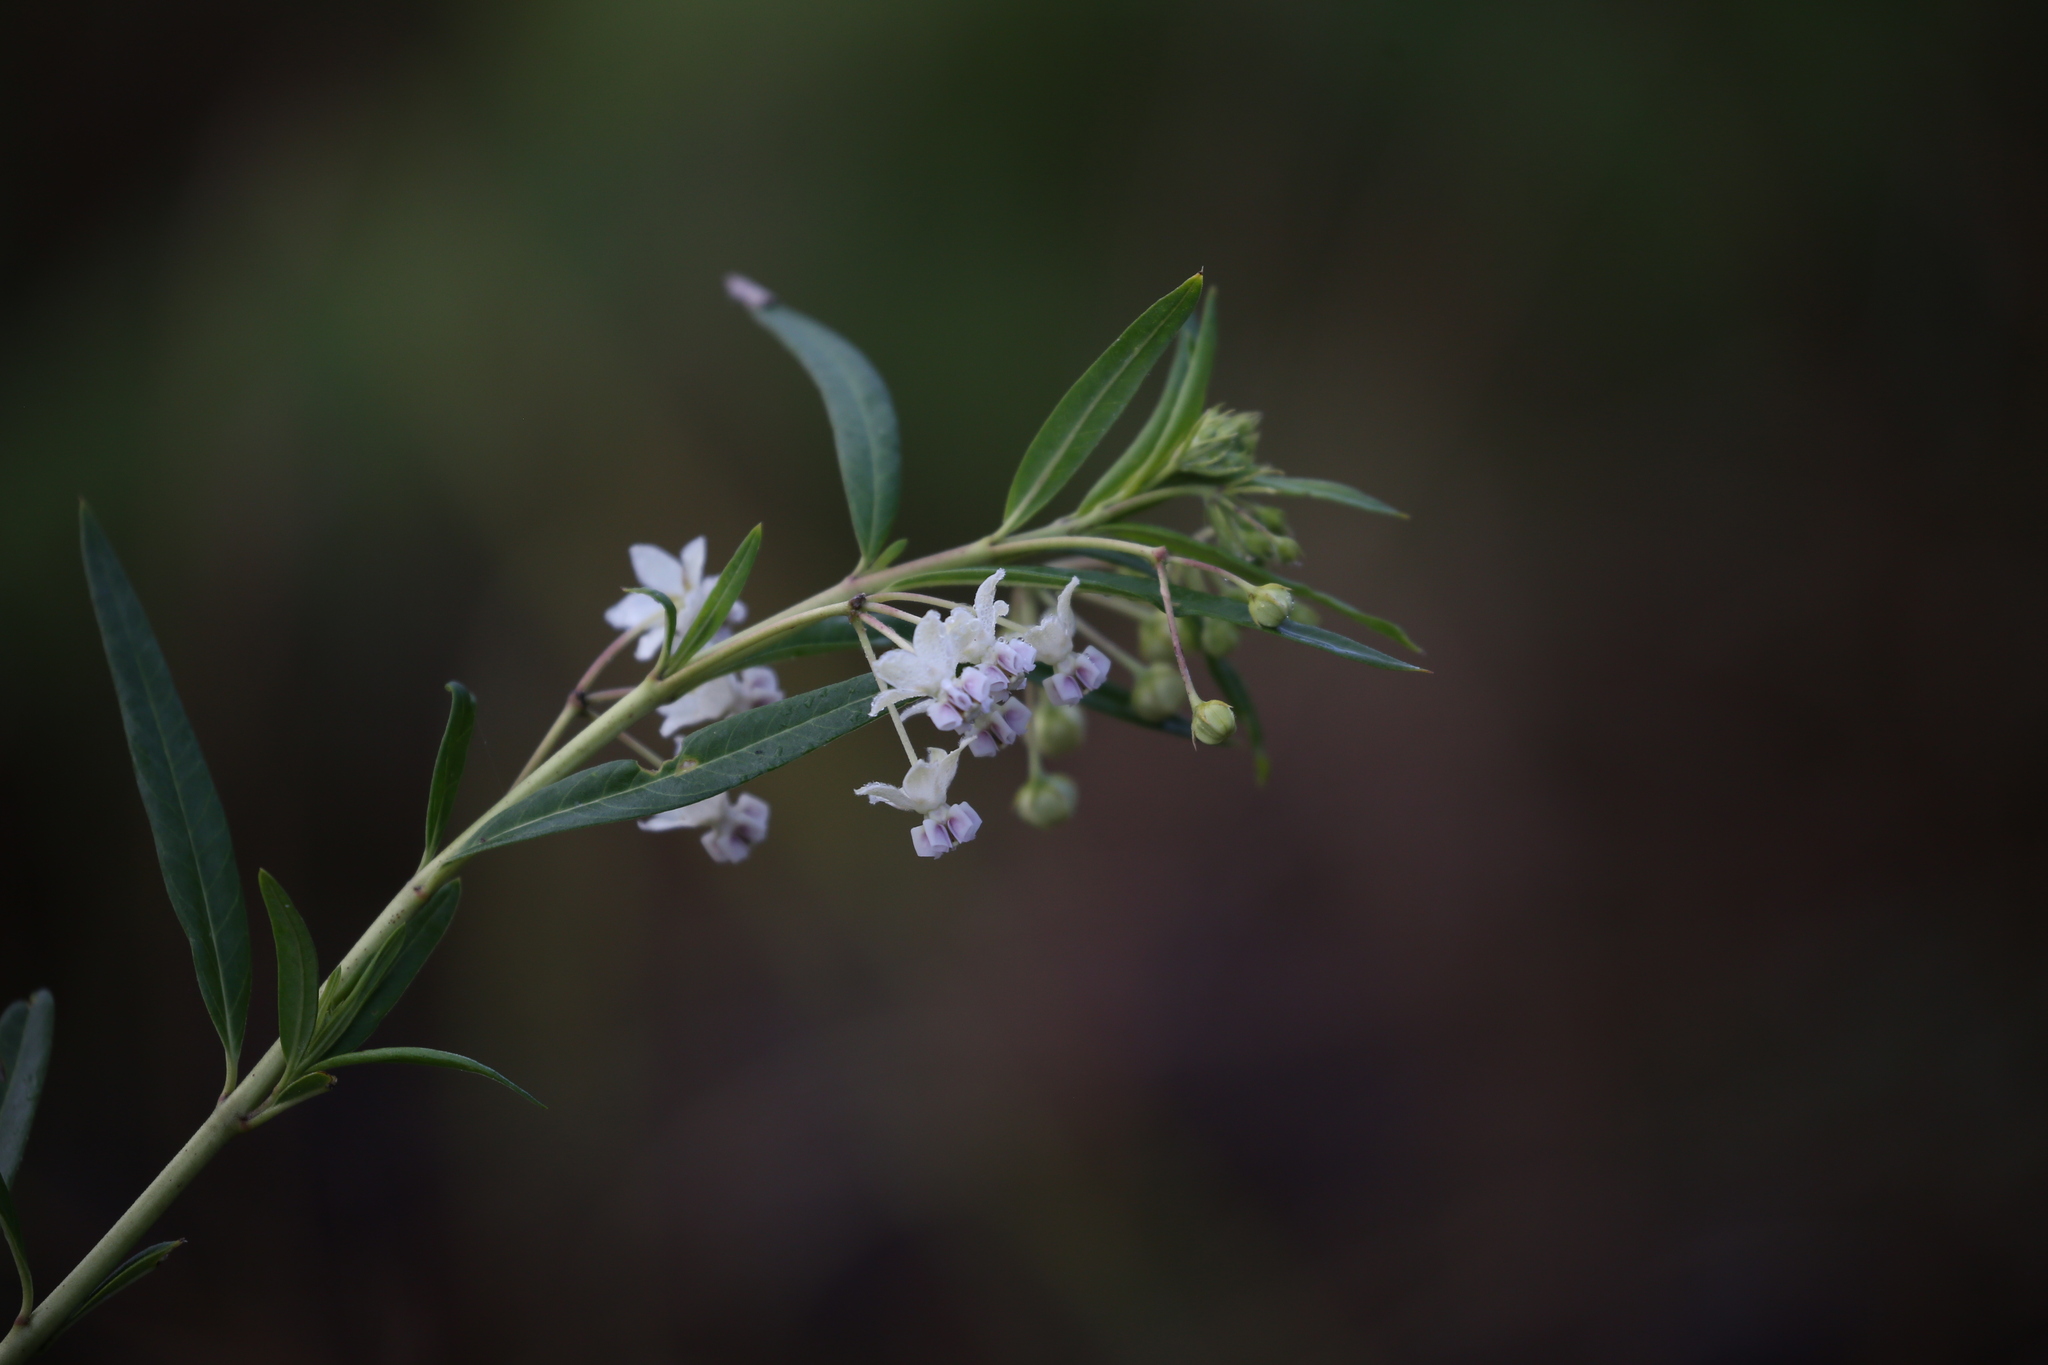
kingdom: Plantae
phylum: Tracheophyta
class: Magnoliopsida
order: Gentianales
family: Apocynaceae
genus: Gomphocarpus
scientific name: Gomphocarpus physocarpus
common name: Balloon cotton bush
